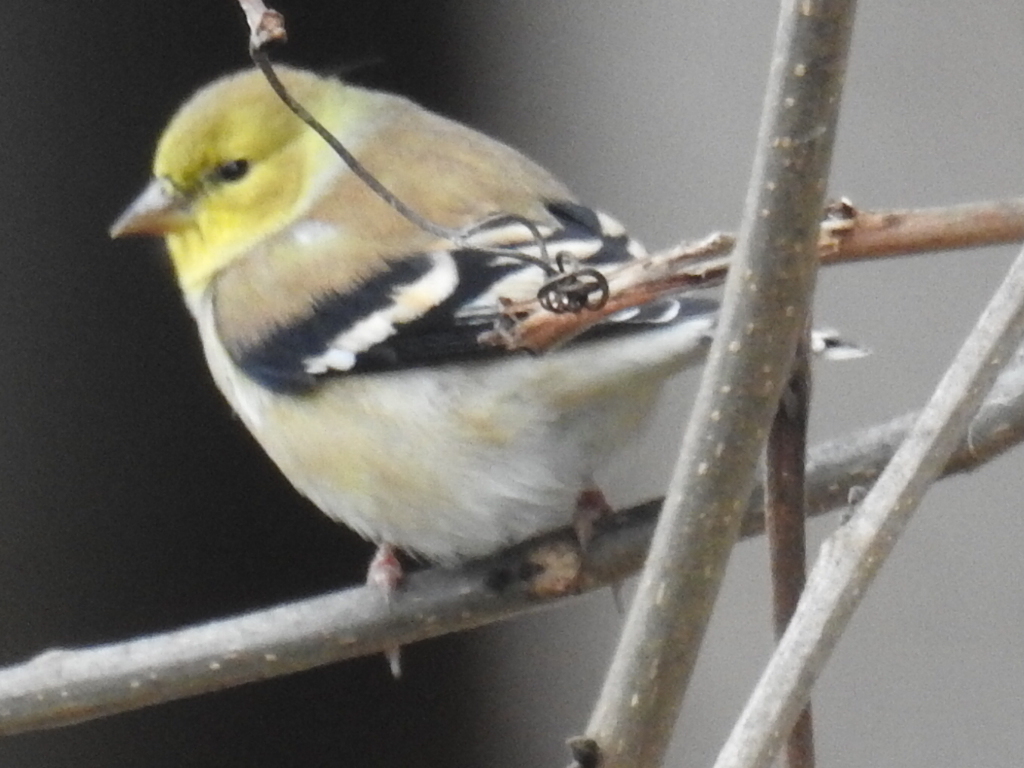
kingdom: Animalia
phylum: Chordata
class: Aves
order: Passeriformes
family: Fringillidae
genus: Spinus
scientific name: Spinus tristis
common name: American goldfinch
